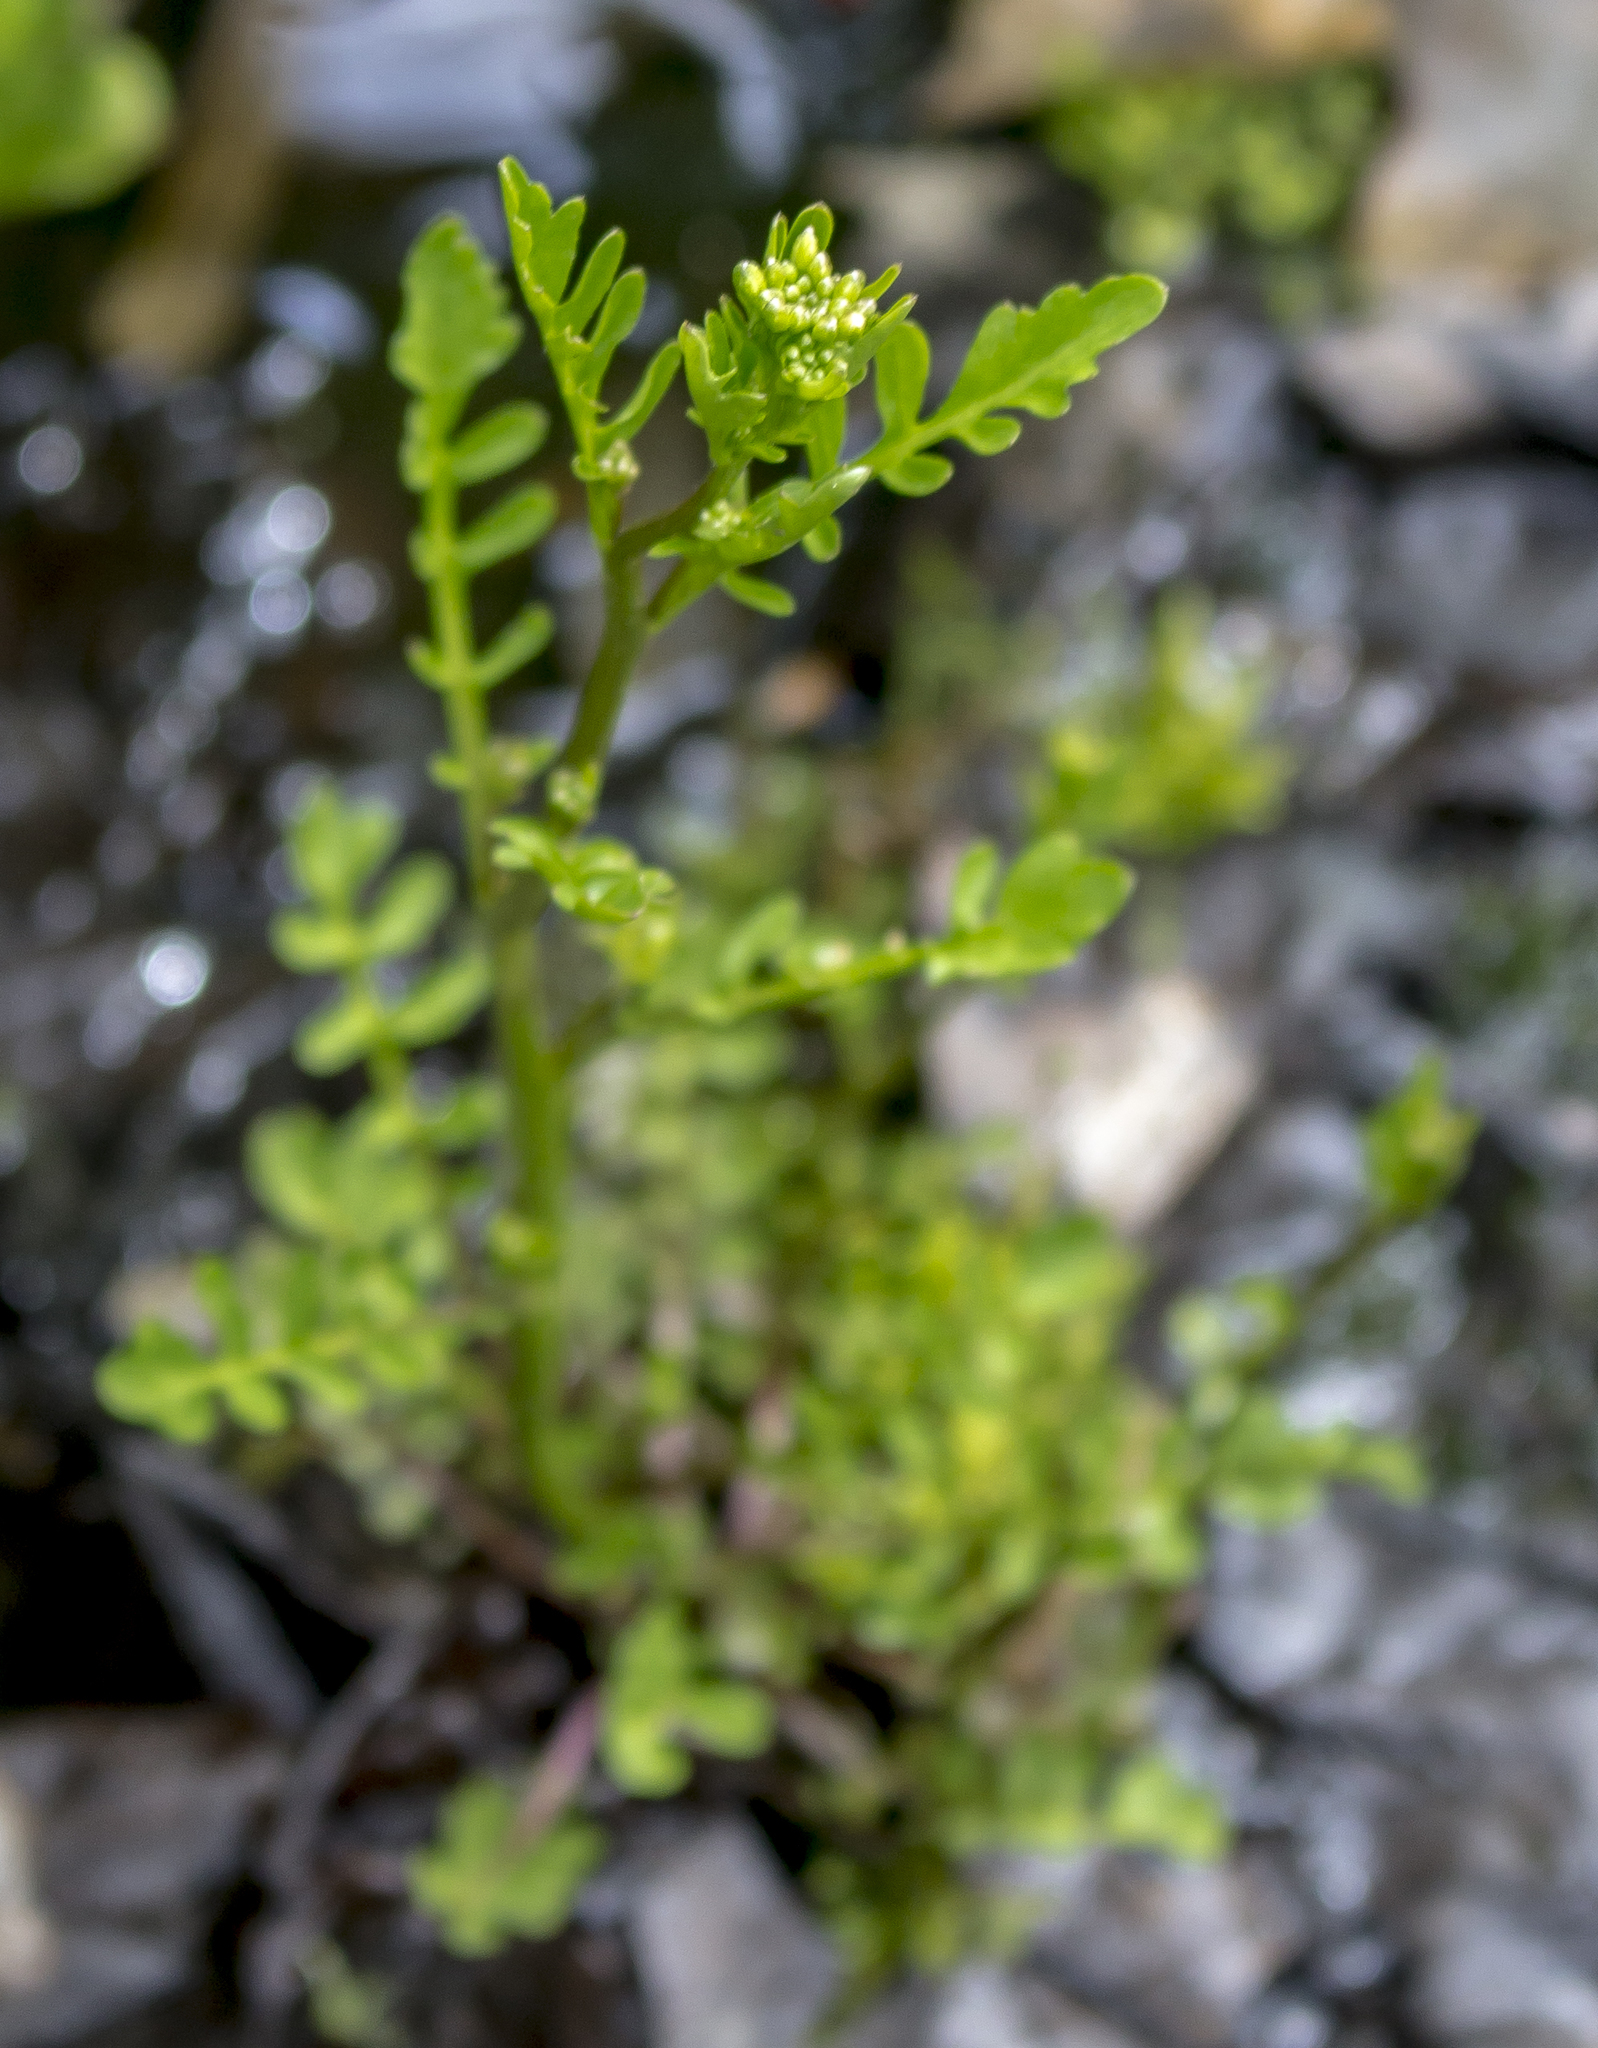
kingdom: Plantae
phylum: Tracheophyta
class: Magnoliopsida
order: Brassicales
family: Brassicaceae
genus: Cardamine
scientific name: Cardamine pensylvanica
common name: Pennsylvania bittercress
